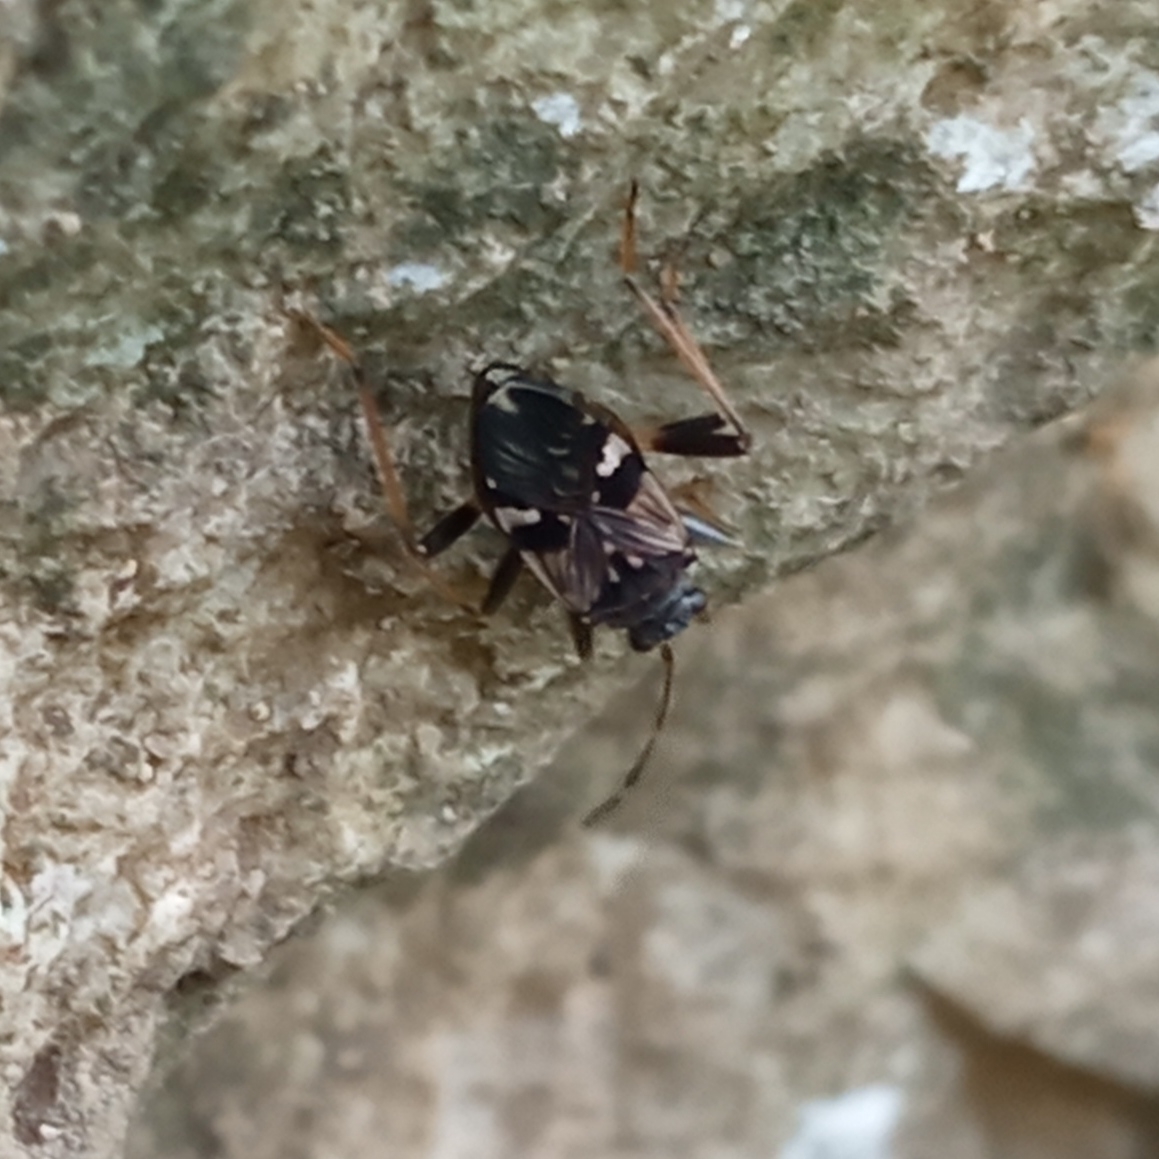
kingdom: Animalia
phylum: Arthropoda
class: Insecta
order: Hemiptera
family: Rhyparochromidae
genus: Beosus
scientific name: Beosus maritimus
